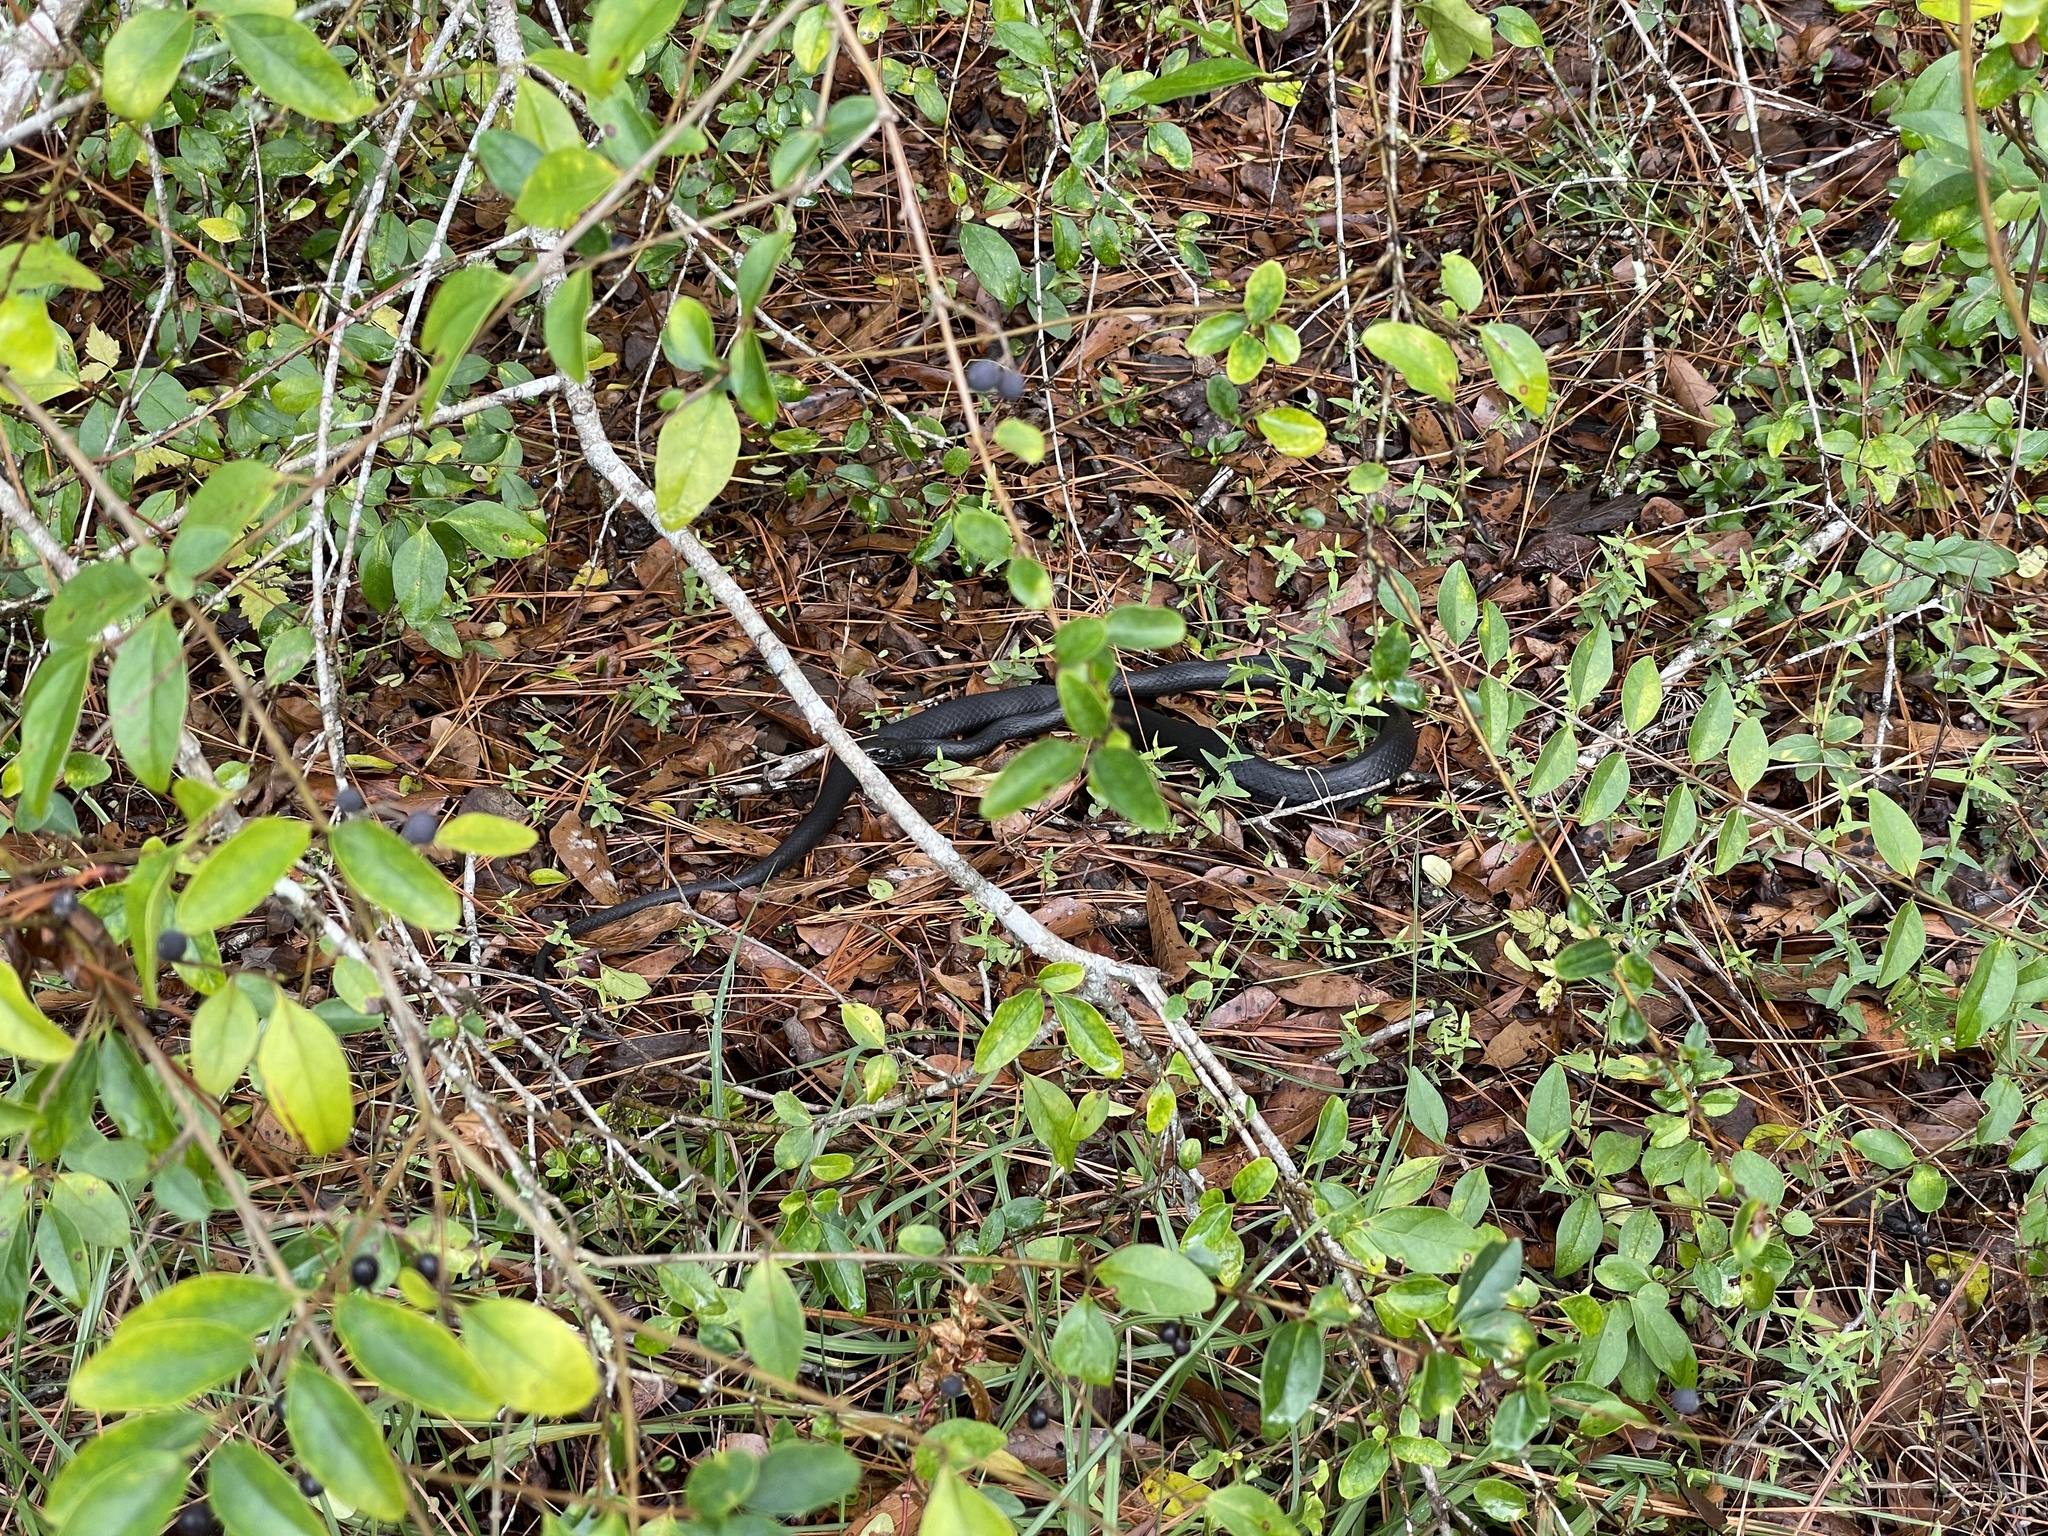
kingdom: Animalia
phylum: Chordata
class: Squamata
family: Colubridae
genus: Coluber
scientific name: Coluber constrictor
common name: Eastern racer
